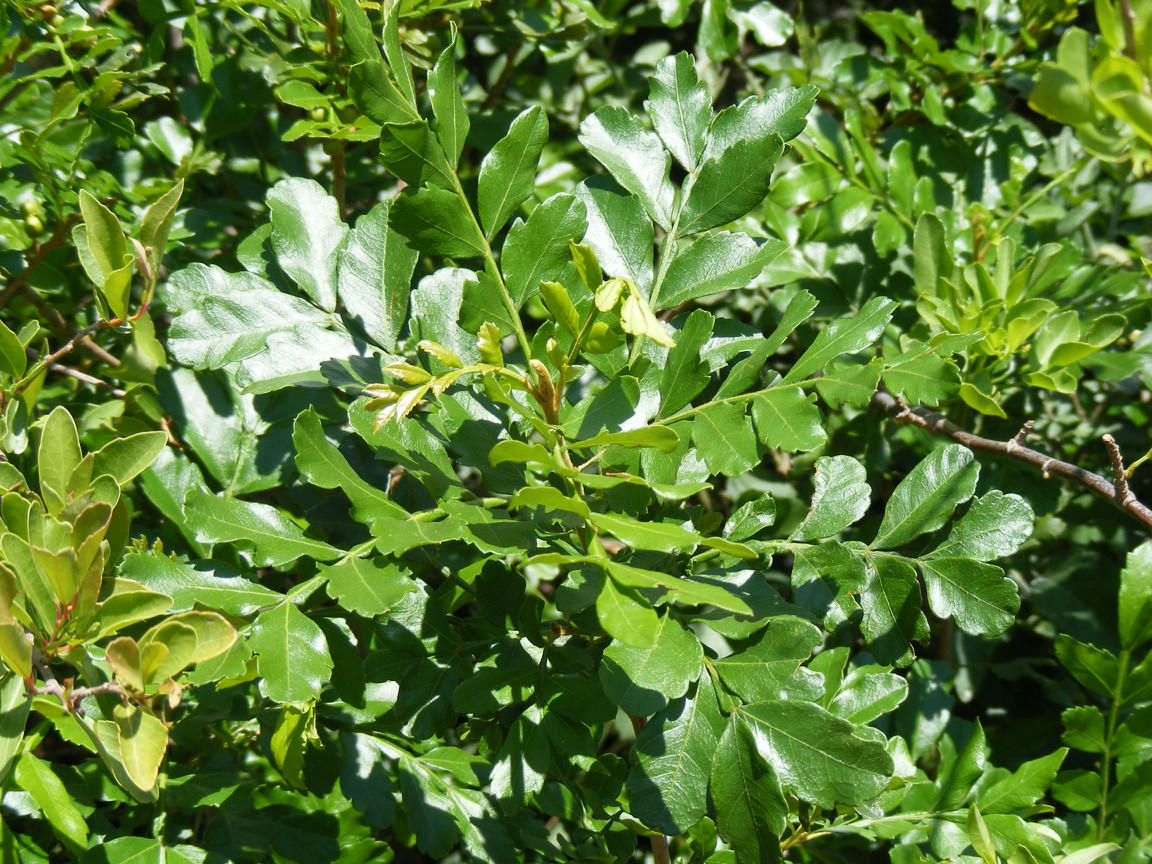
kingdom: Plantae
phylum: Tracheophyta
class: Magnoliopsida
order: Sapindales
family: Sapindaceae
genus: Hippobromus
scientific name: Hippobromus pauciflorus
